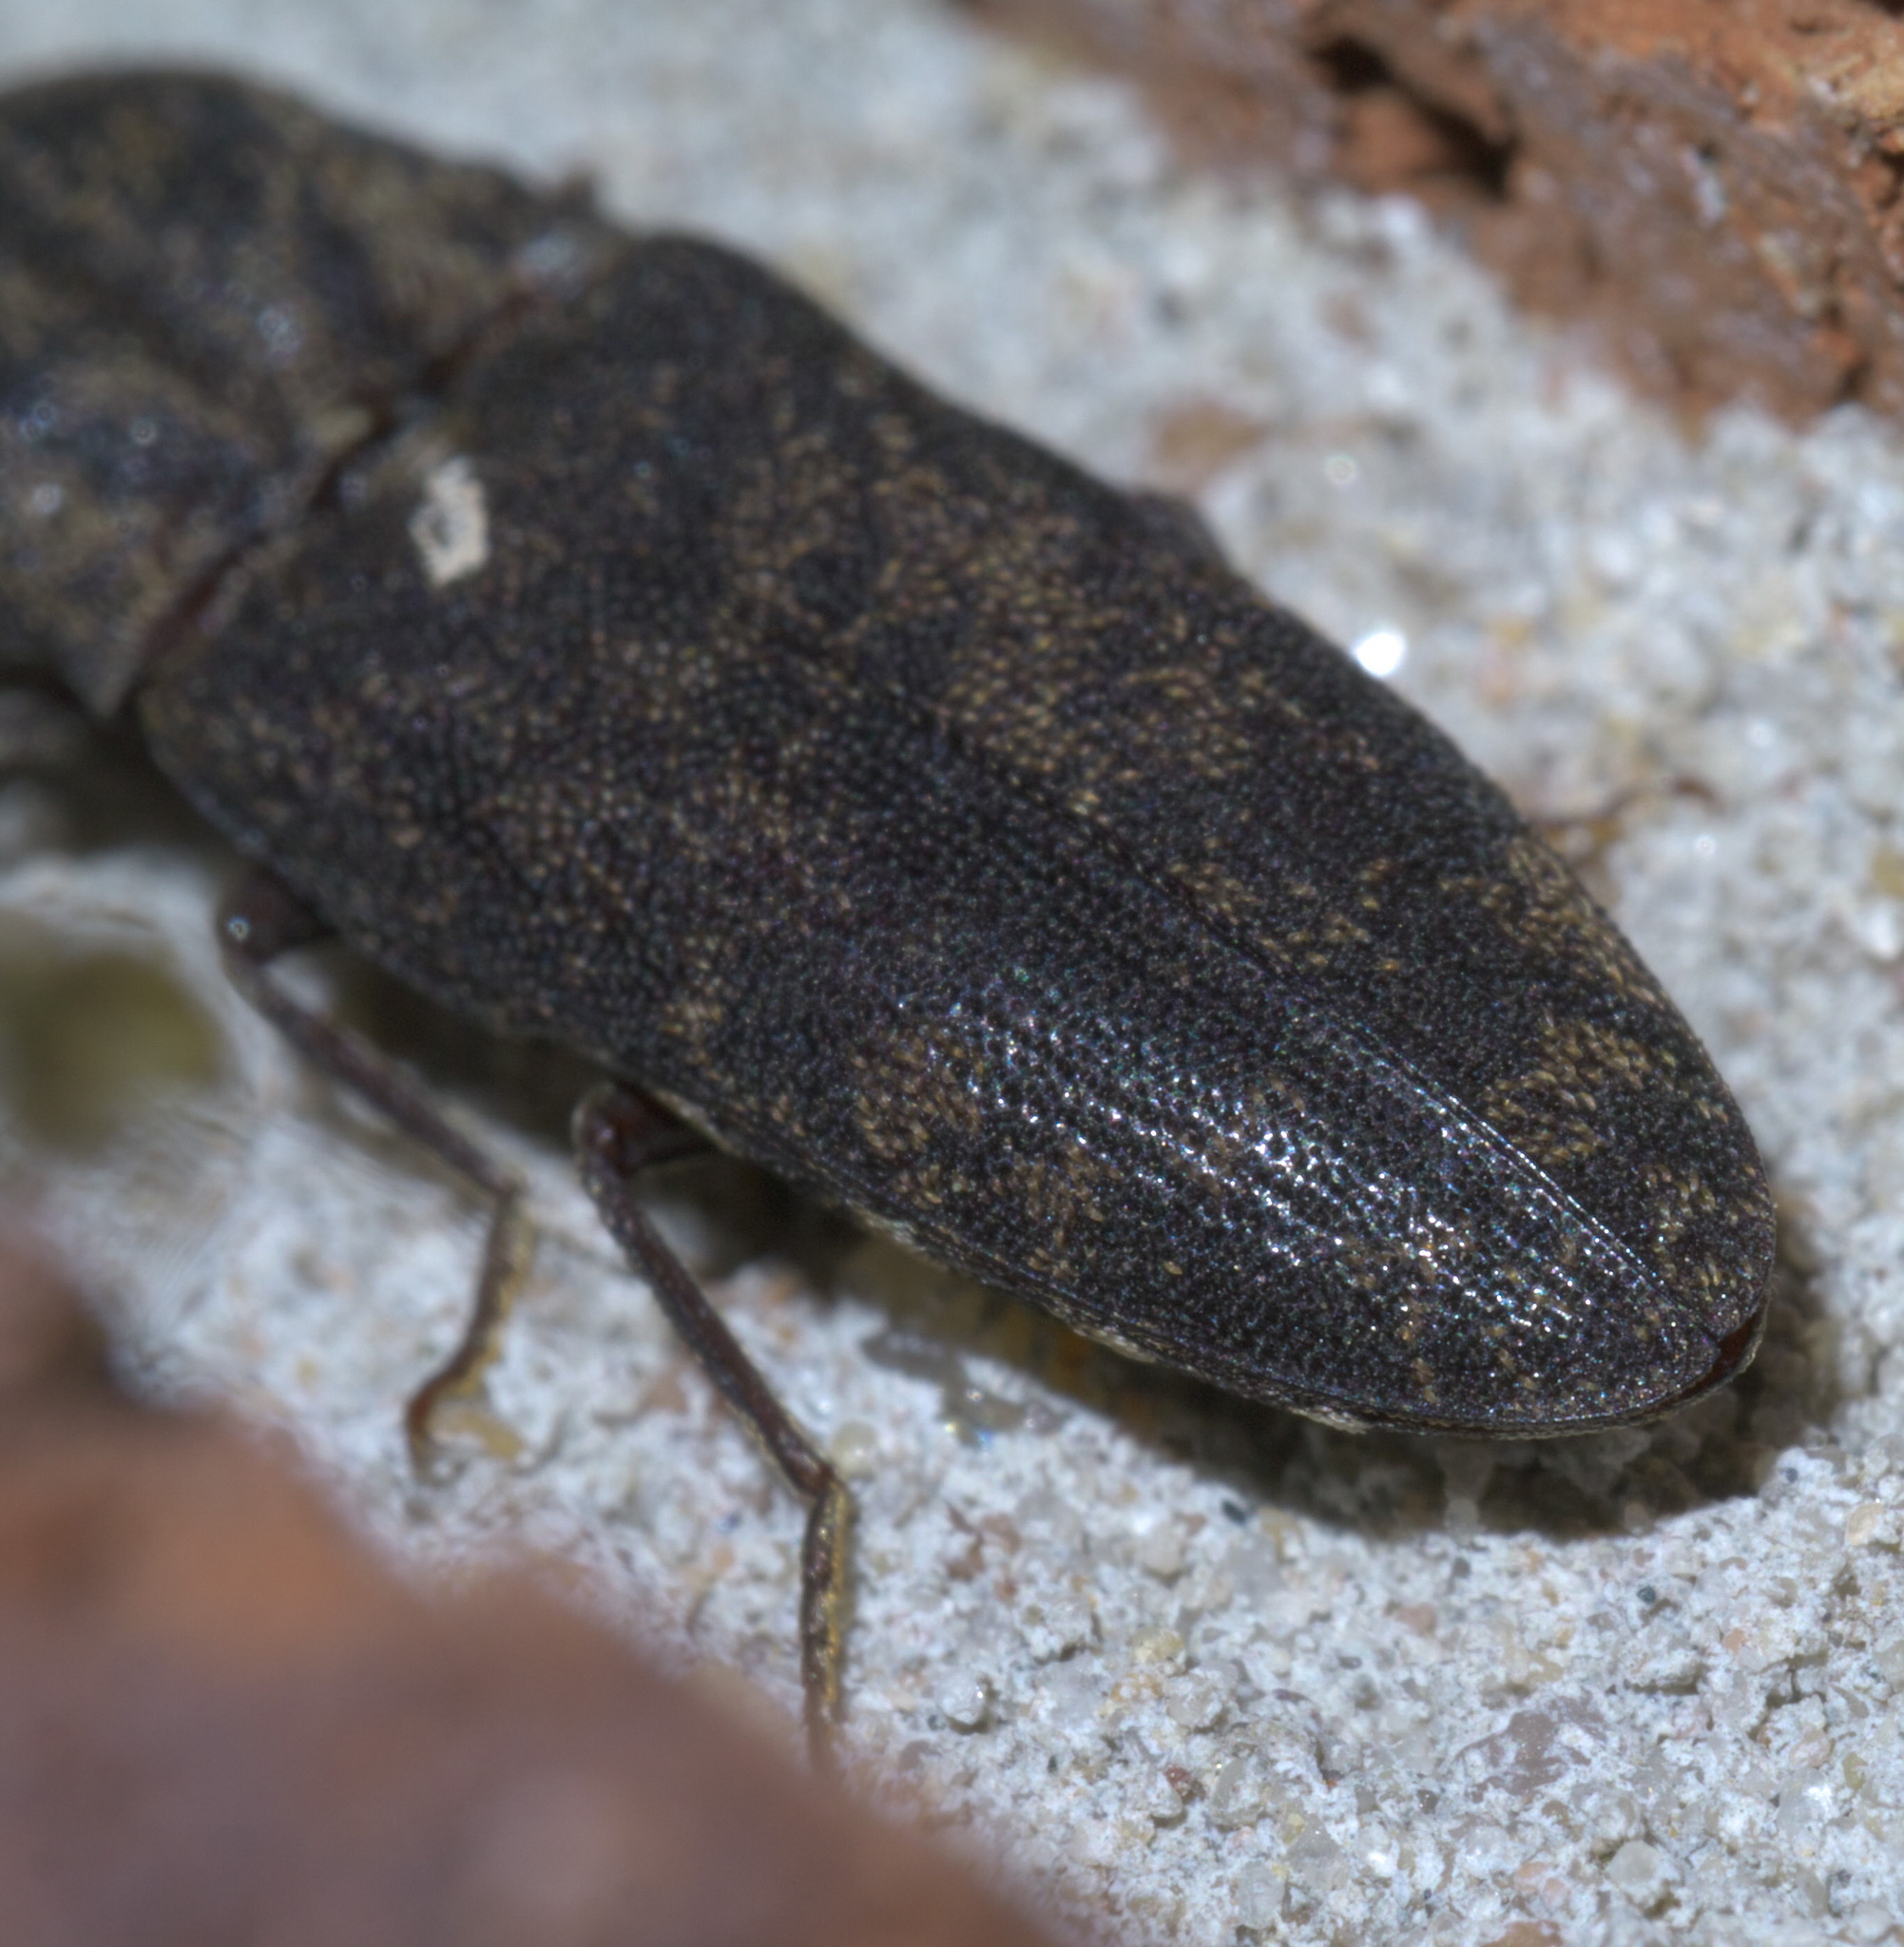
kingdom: Animalia
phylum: Arthropoda
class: Insecta
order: Coleoptera
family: Elateridae
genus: Lacon
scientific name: Lacon marmoratus
